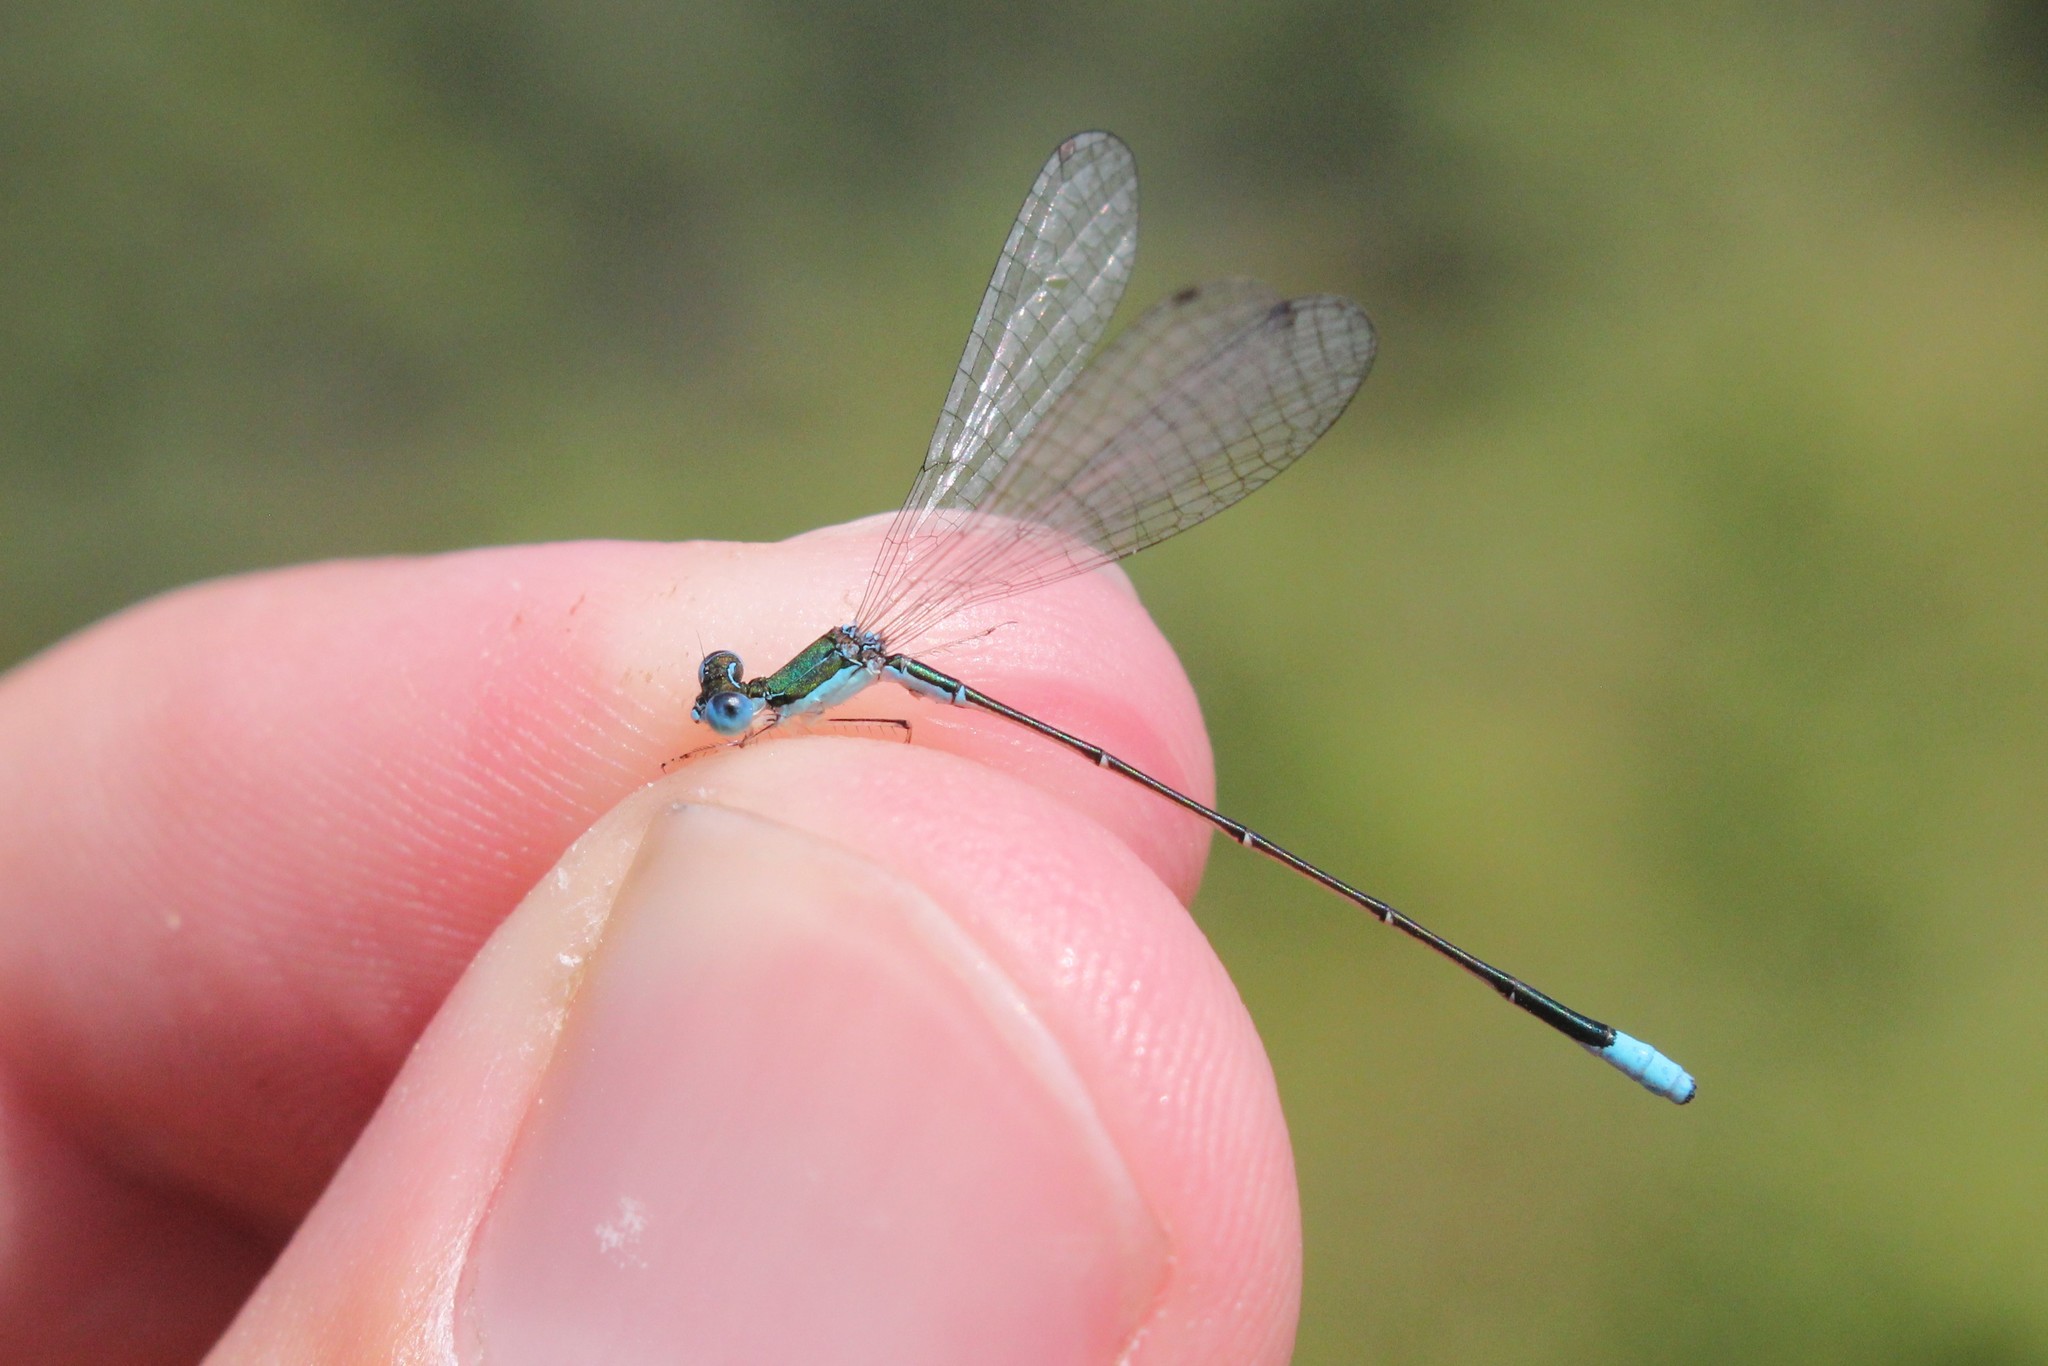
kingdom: Animalia
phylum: Arthropoda
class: Insecta
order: Odonata
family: Coenagrionidae
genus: Nehalennia
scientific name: Nehalennia gracilis
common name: Sphagnum sprite
